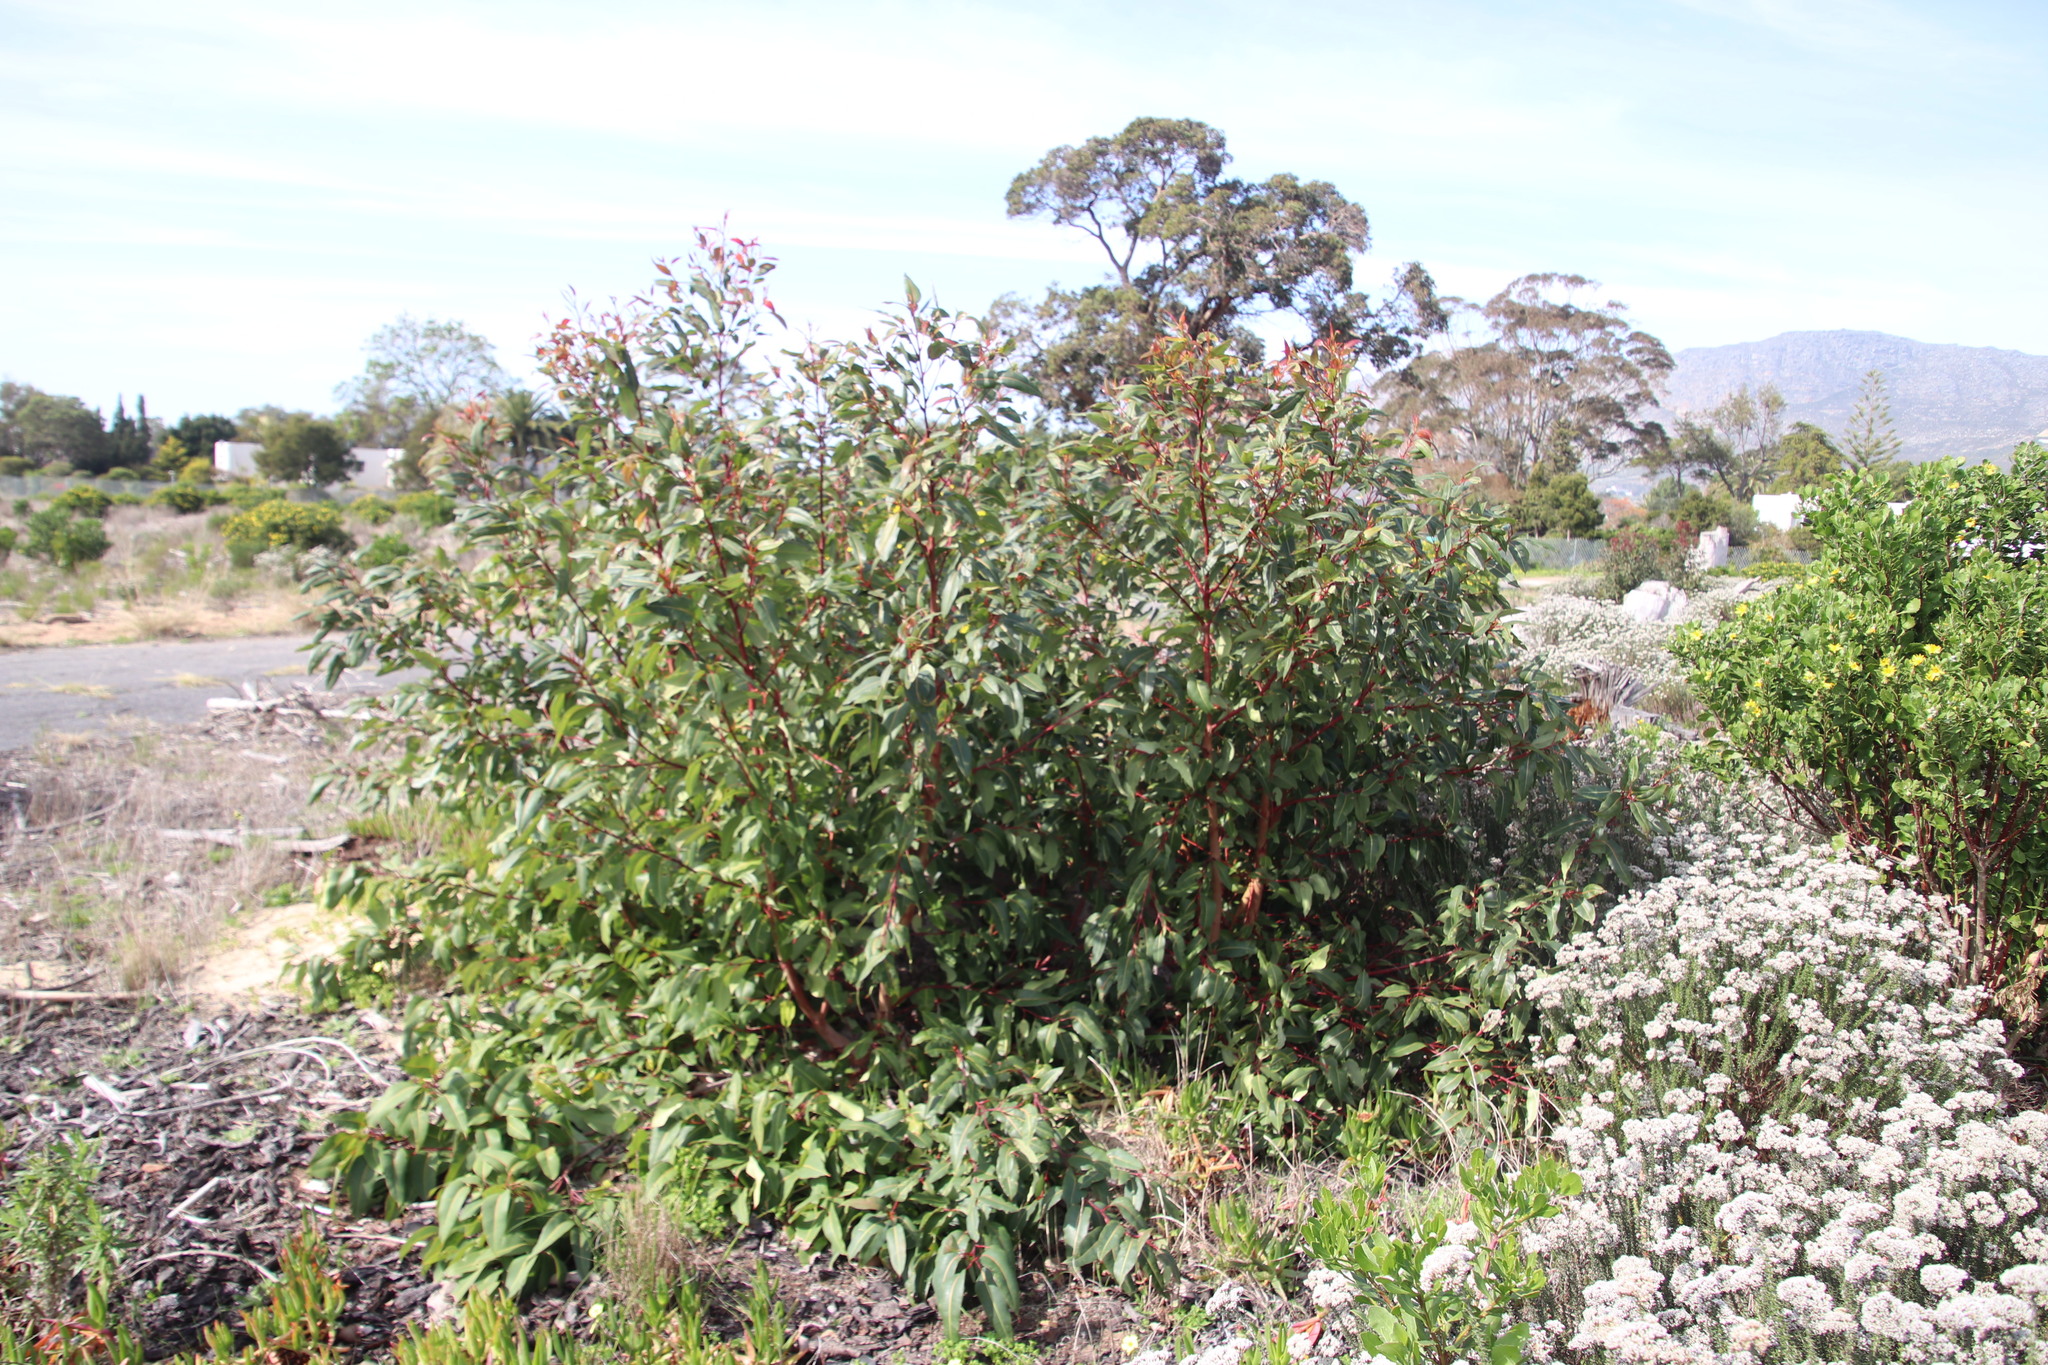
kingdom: Plantae
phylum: Tracheophyta
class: Magnoliopsida
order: Myrtales
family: Myrtaceae
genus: Corymbia
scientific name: Corymbia ficifolia
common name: Redflower gum
